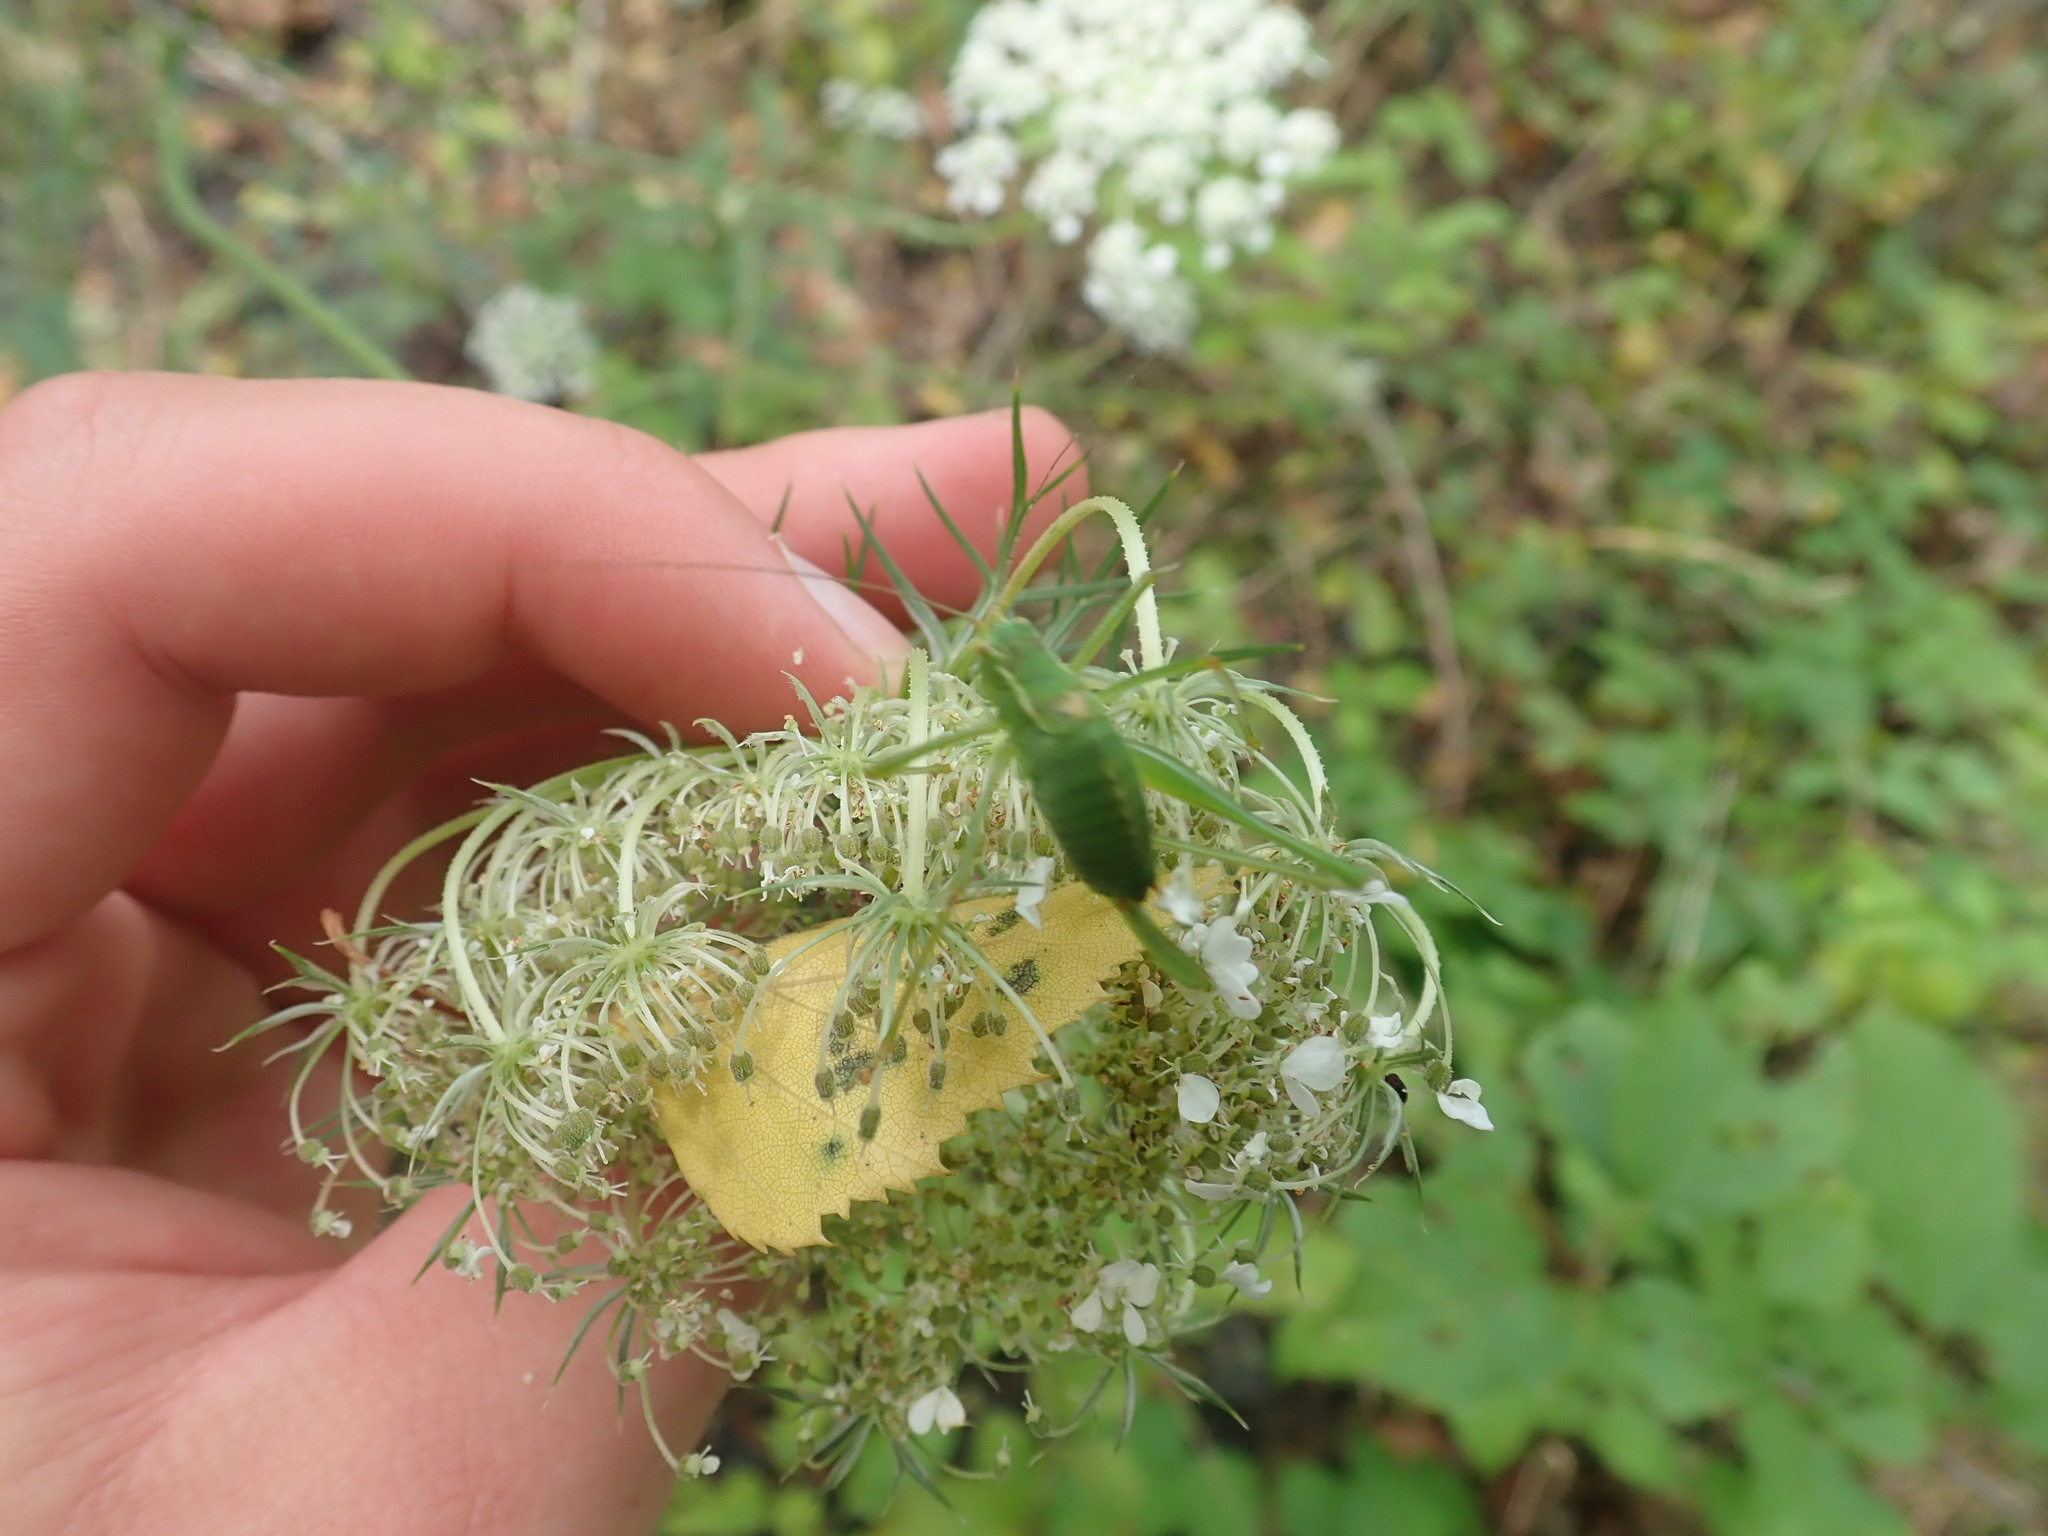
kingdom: Animalia
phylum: Arthropoda
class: Insecta
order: Orthoptera
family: Tettigoniidae
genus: Leptophyes
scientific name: Leptophyes punctatissima
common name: Speckled bush-cricket
